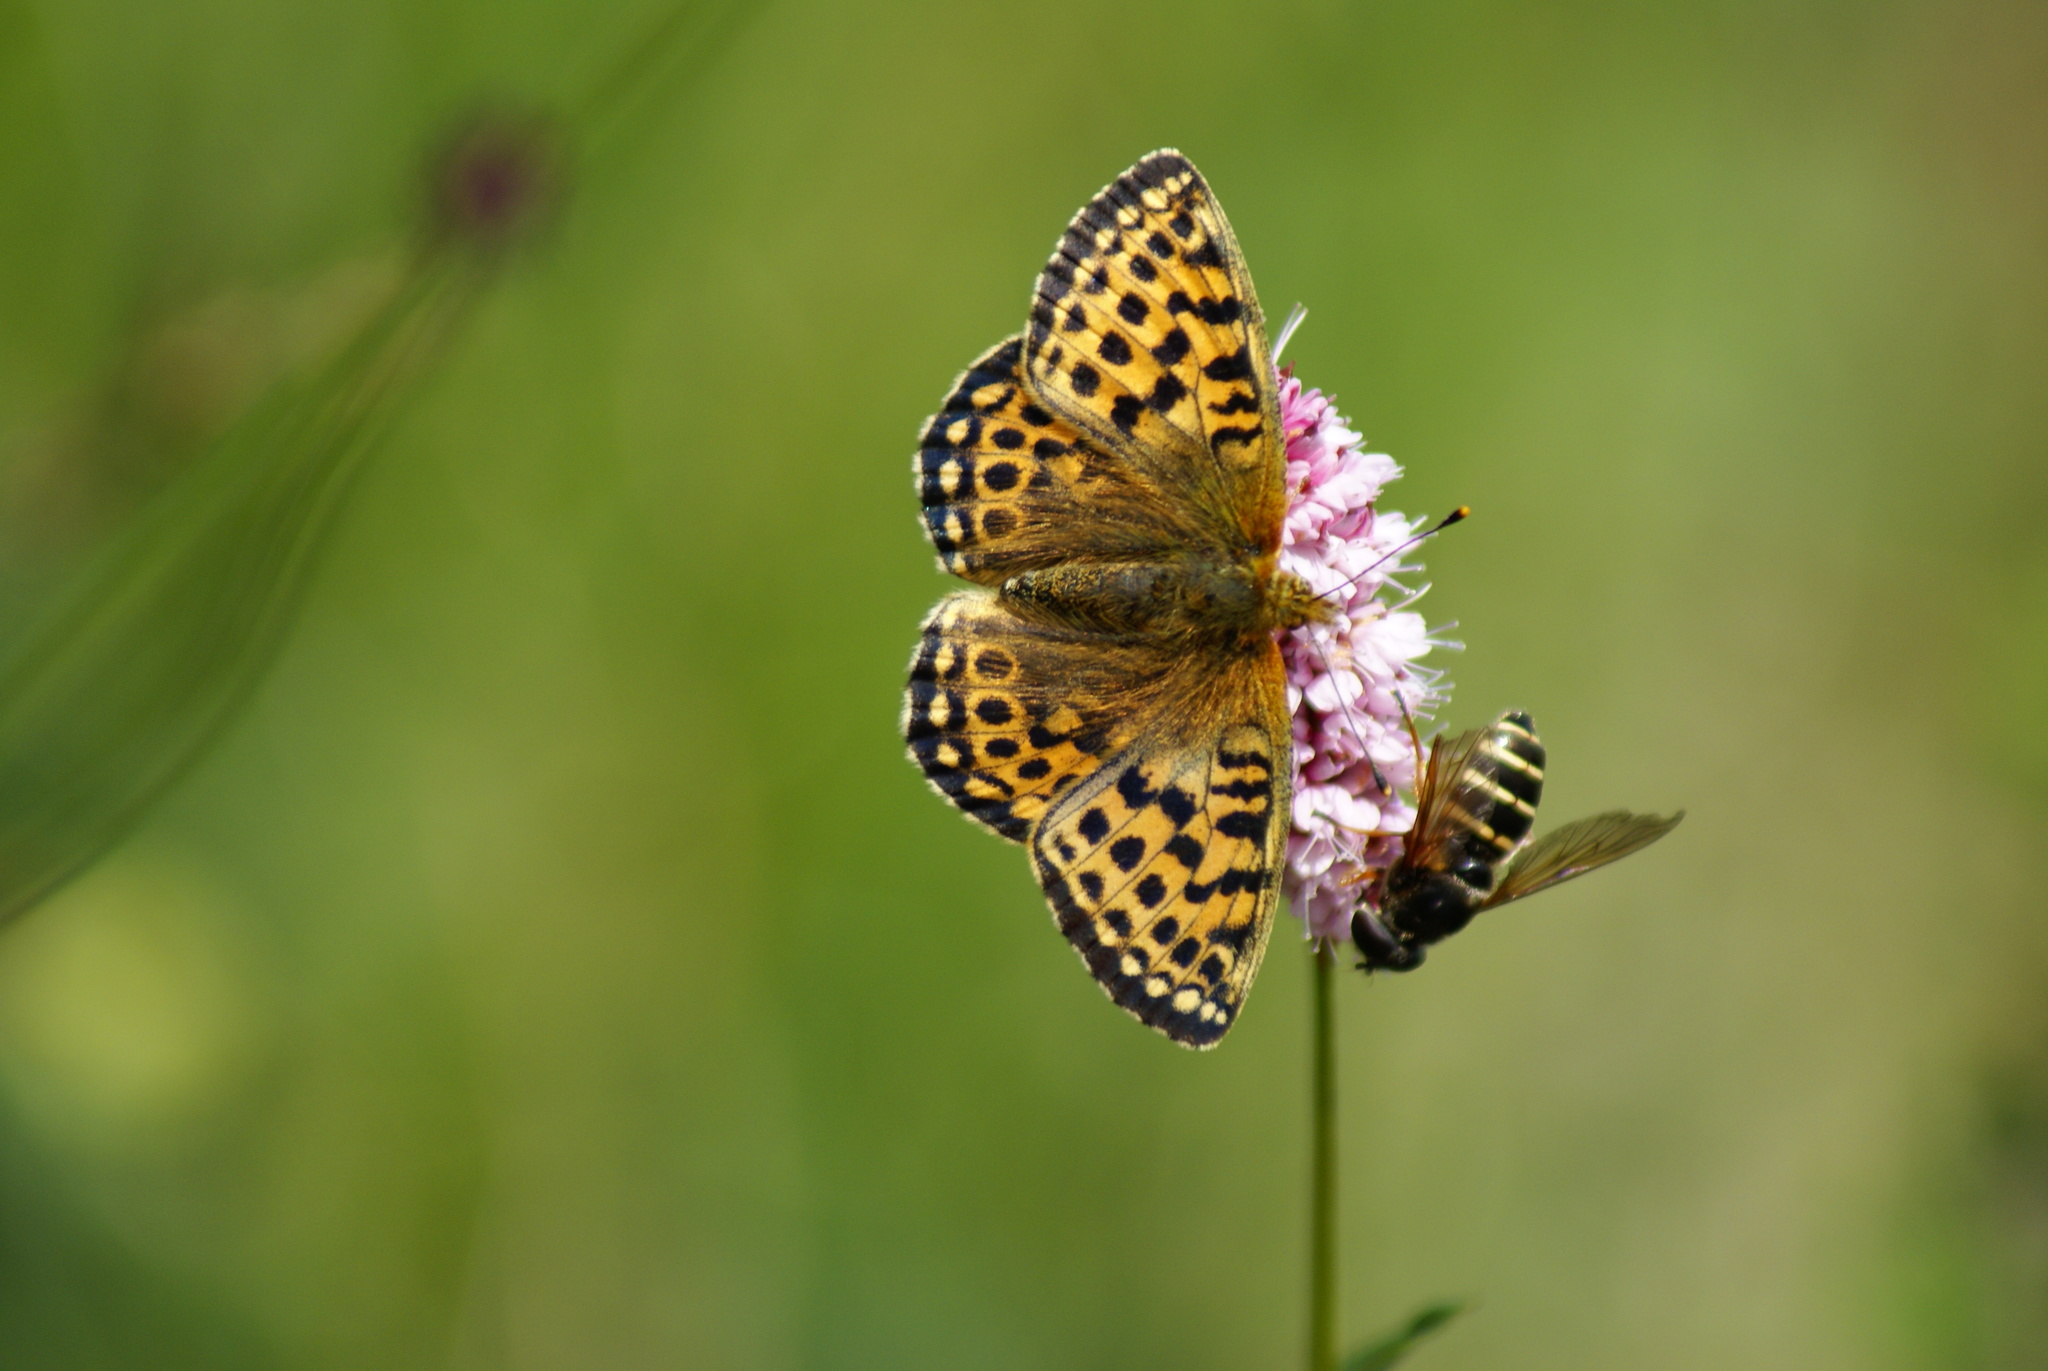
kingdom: Animalia
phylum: Arthropoda
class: Insecta
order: Lepidoptera
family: Nymphalidae
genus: Issoria
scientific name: Issoria eugenia
